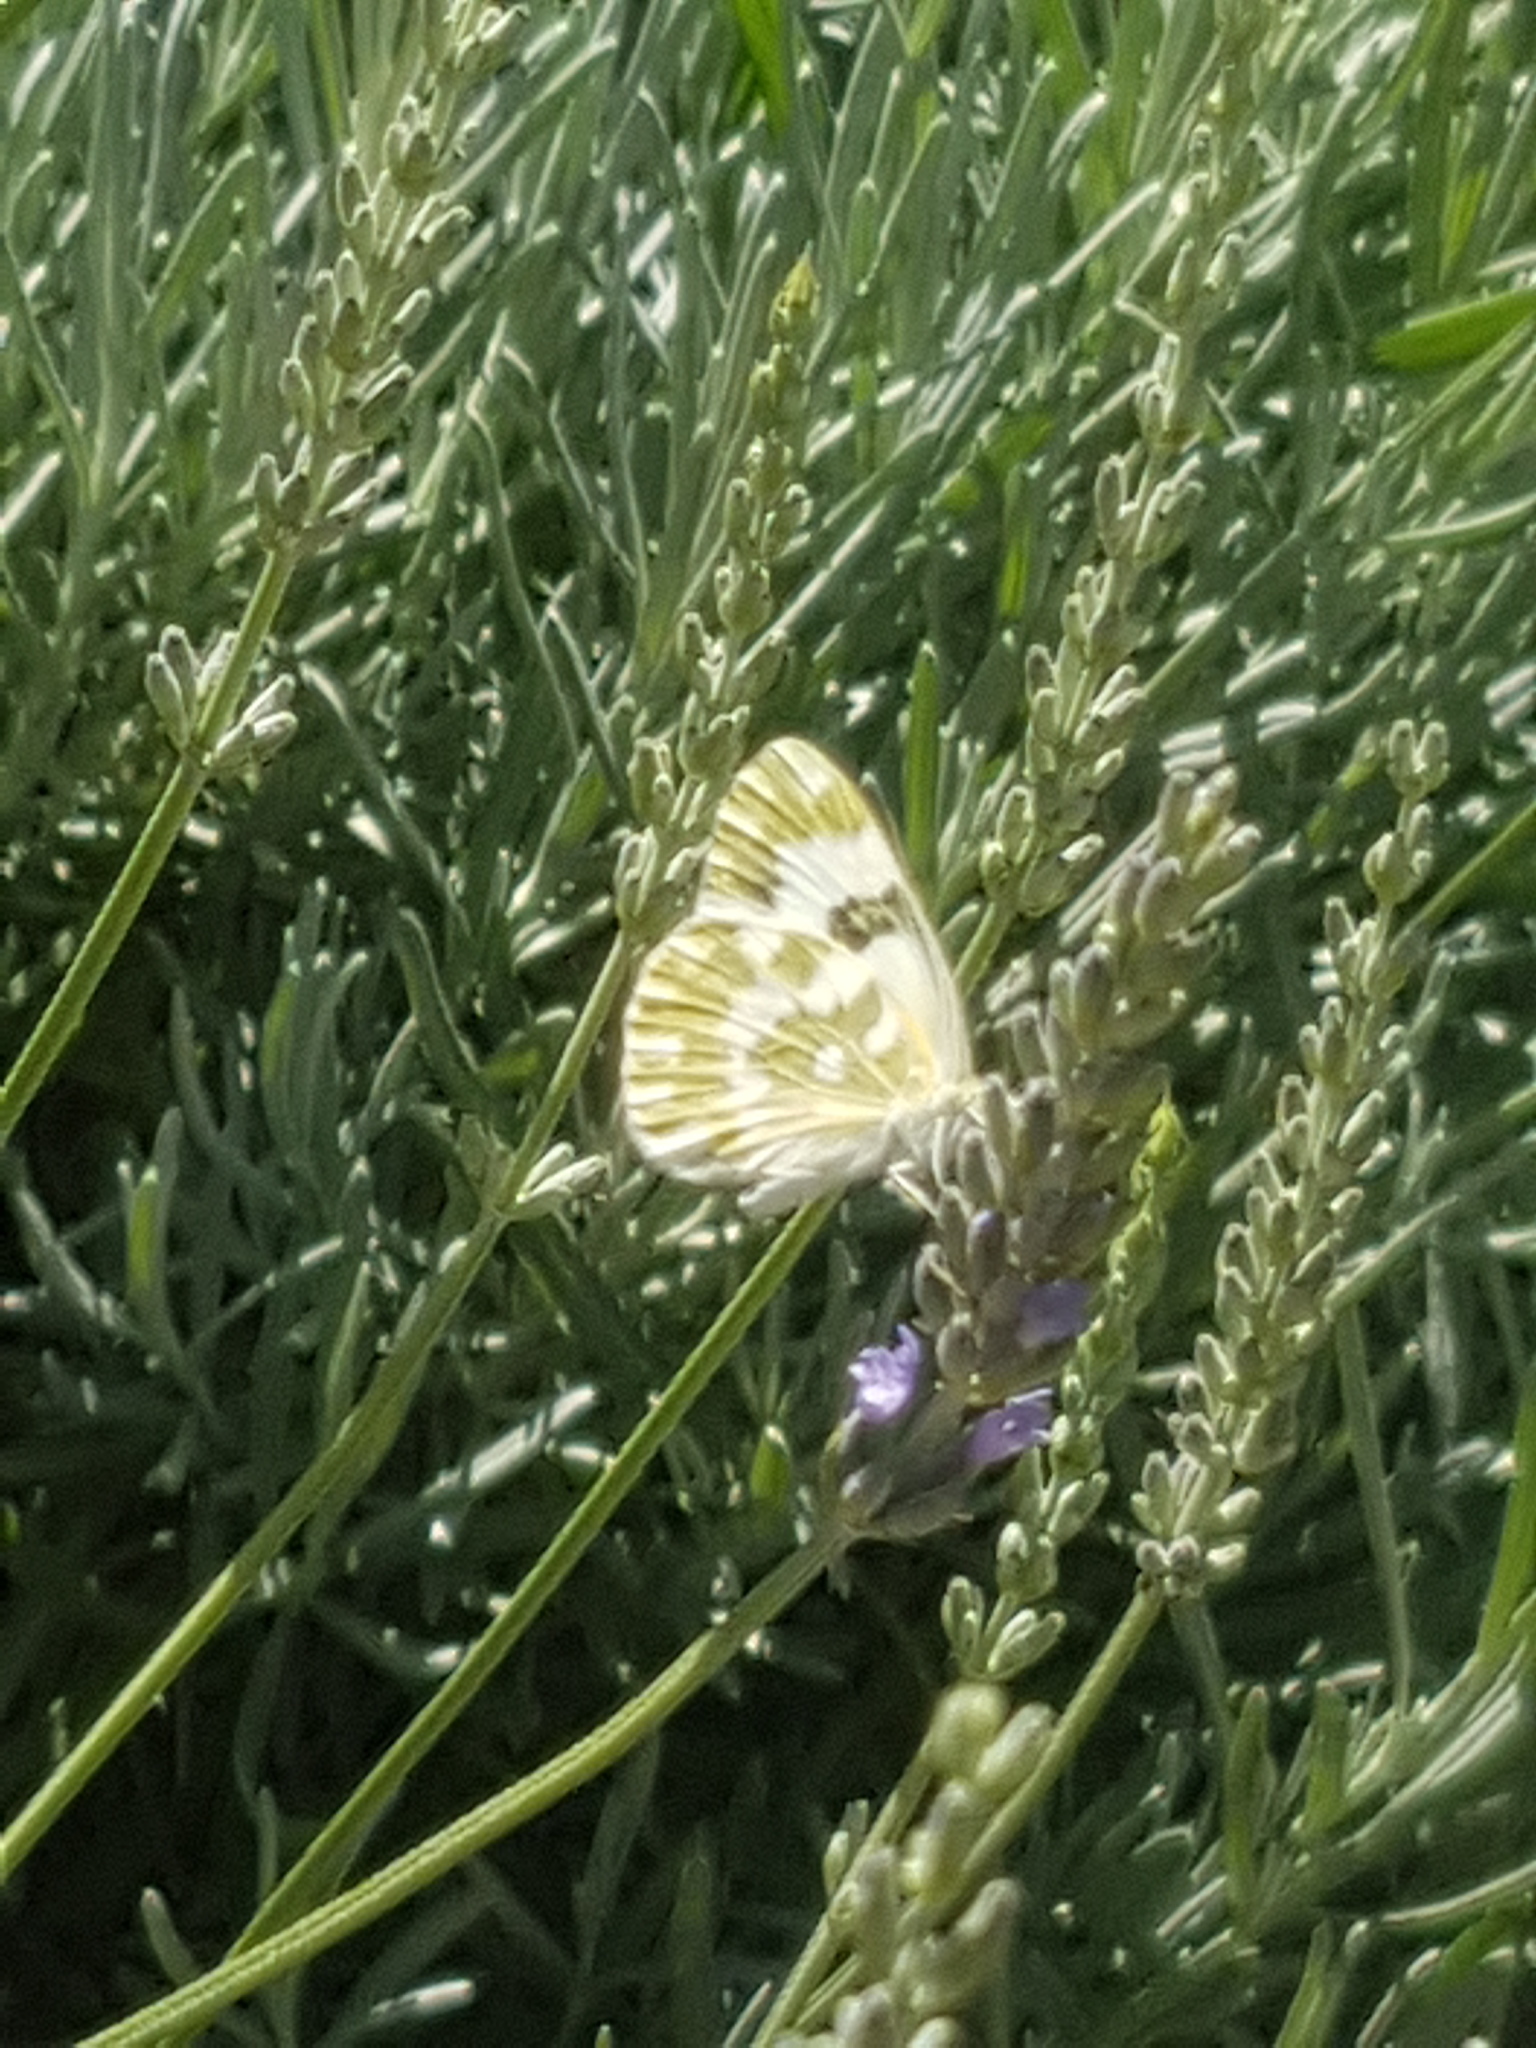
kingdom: Animalia
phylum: Arthropoda
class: Insecta
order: Lepidoptera
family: Pieridae
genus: Pontia
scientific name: Pontia edusa
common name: Eastern bath white
